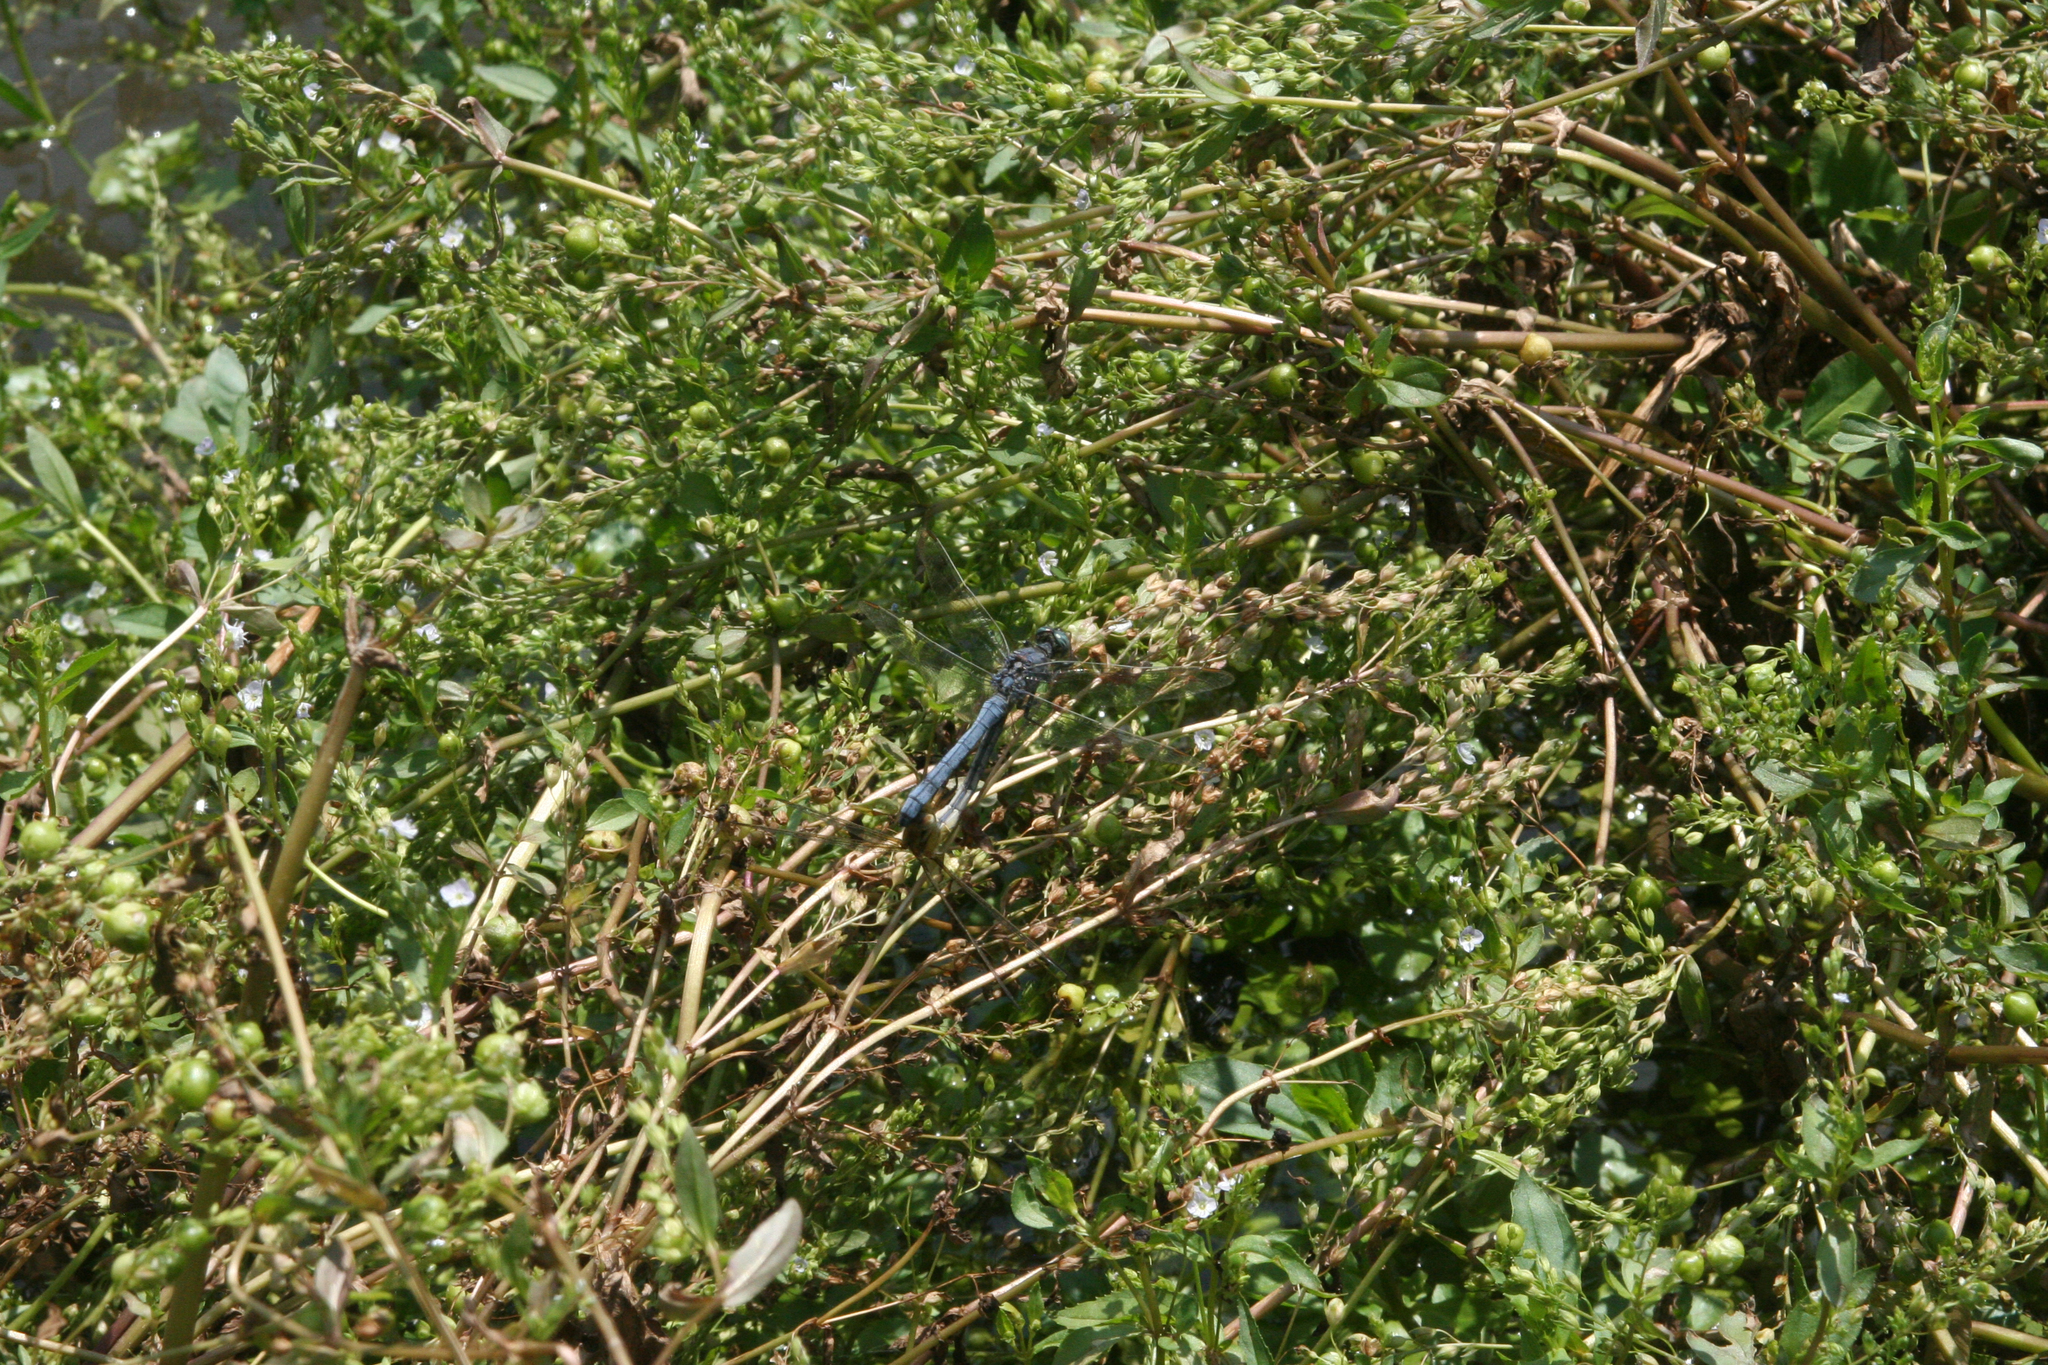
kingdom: Plantae
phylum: Tracheophyta
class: Magnoliopsida
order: Lamiales
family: Plantaginaceae
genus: Veronica
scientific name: Veronica anagallis-aquatica
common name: Water speedwell
